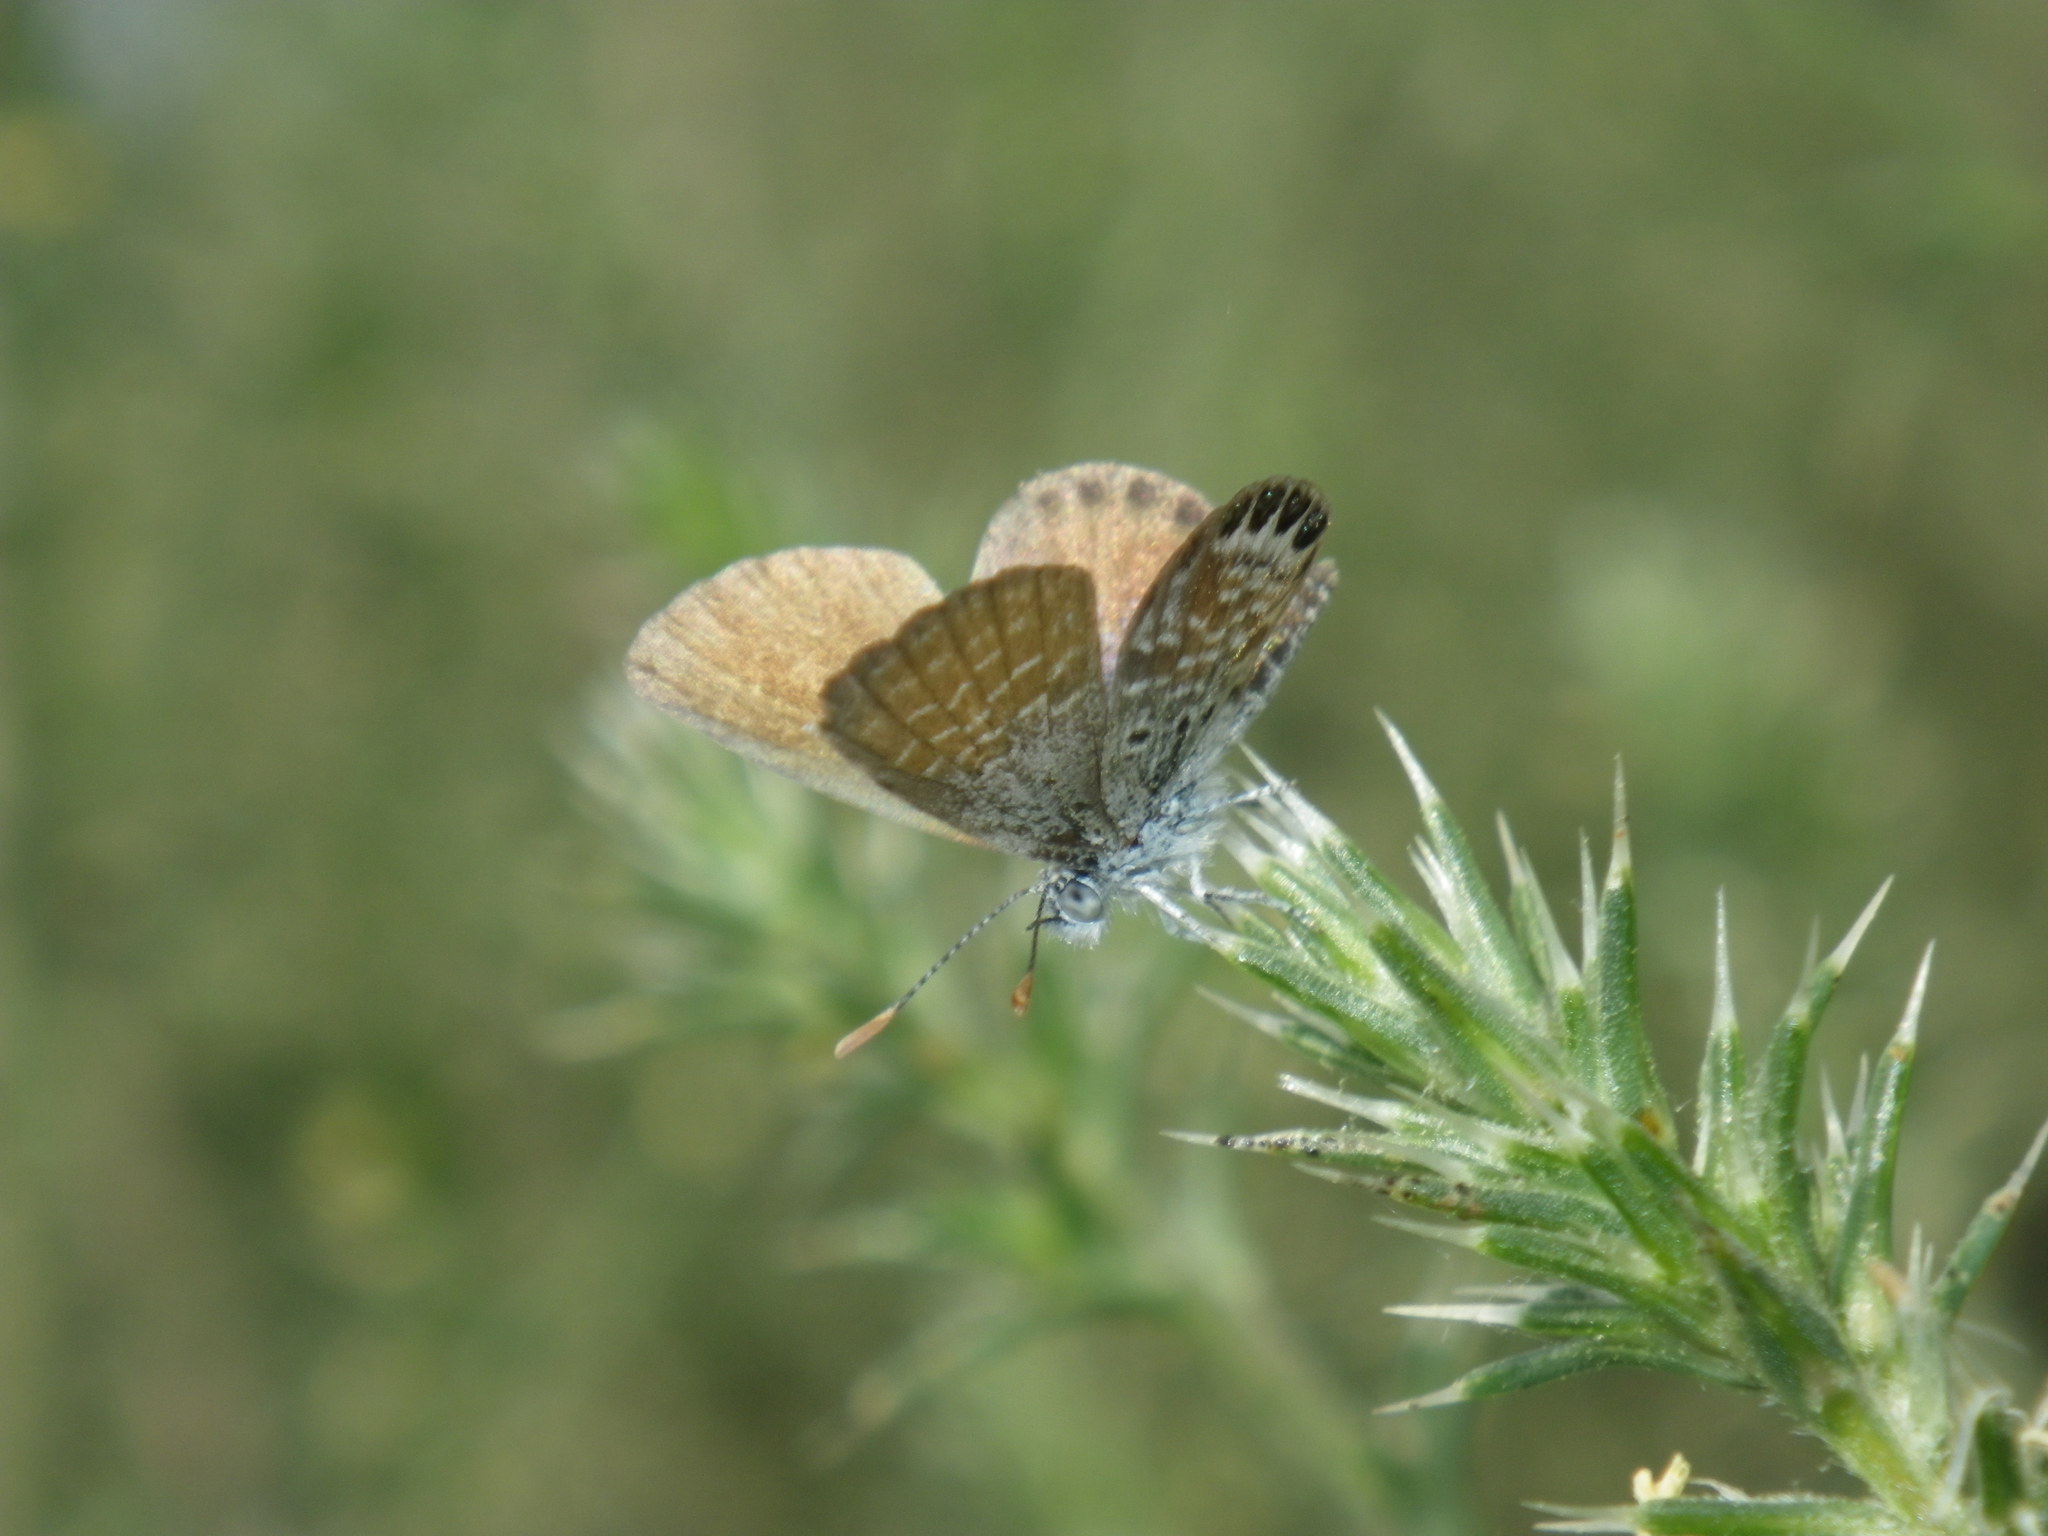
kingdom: Animalia
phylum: Arthropoda
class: Insecta
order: Lepidoptera
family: Lycaenidae
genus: Brephidium
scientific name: Brephidium exilis
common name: Pygmy blue
